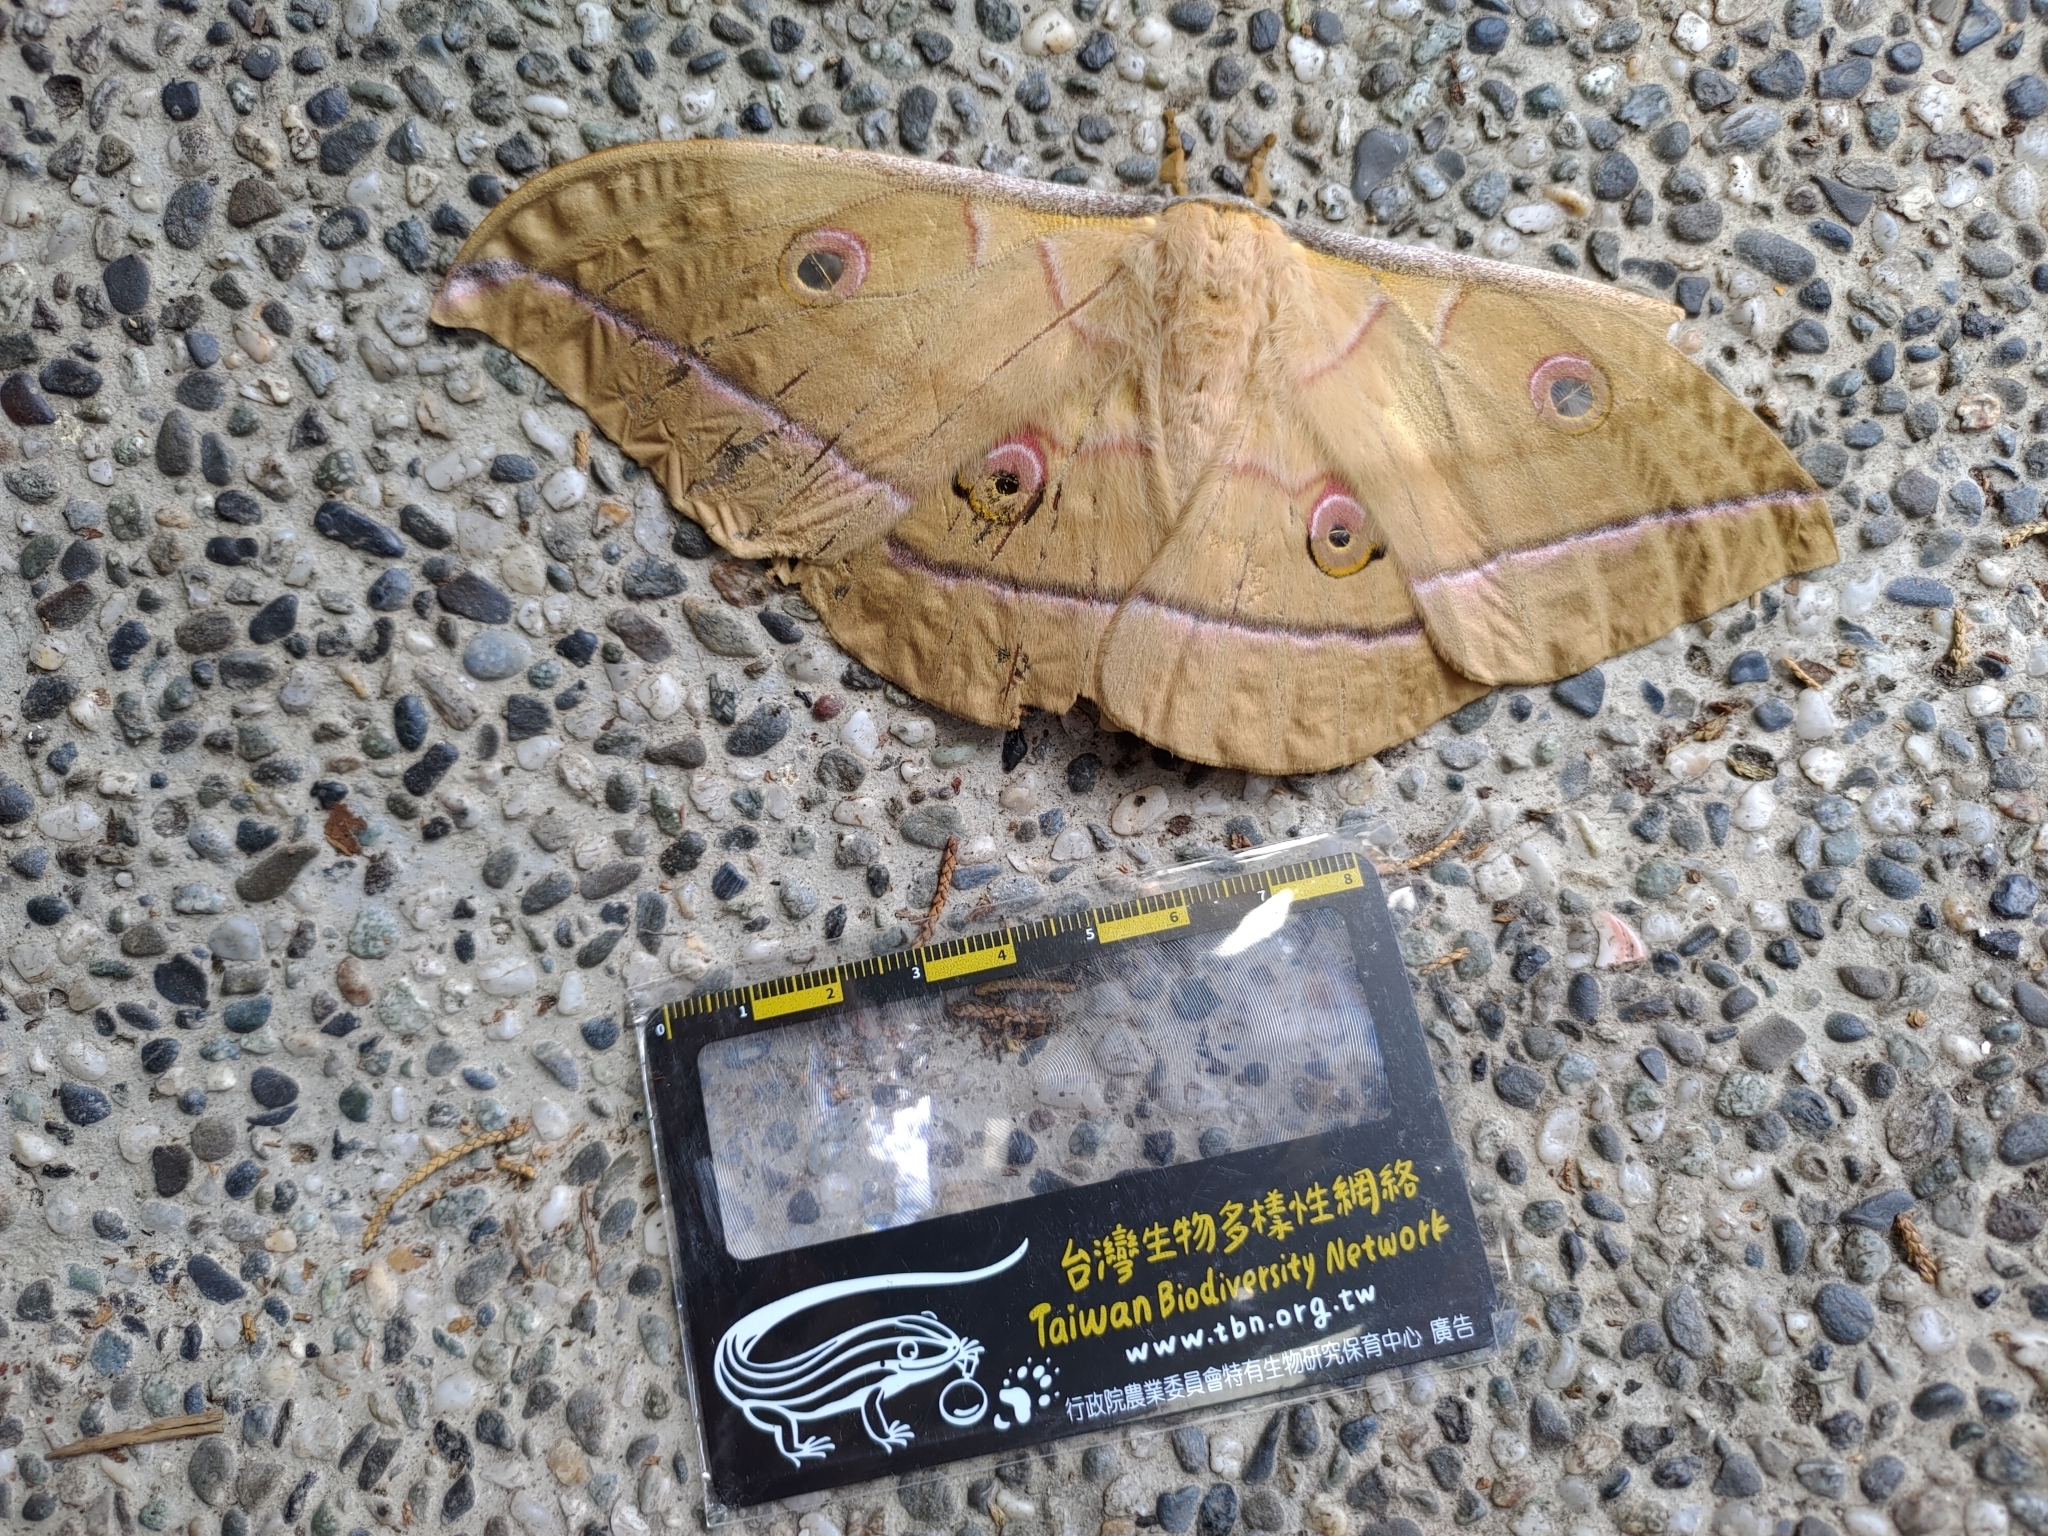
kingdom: Animalia
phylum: Arthropoda
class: Insecta
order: Lepidoptera
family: Saturniidae
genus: Antheraea
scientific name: Antheraea superba
